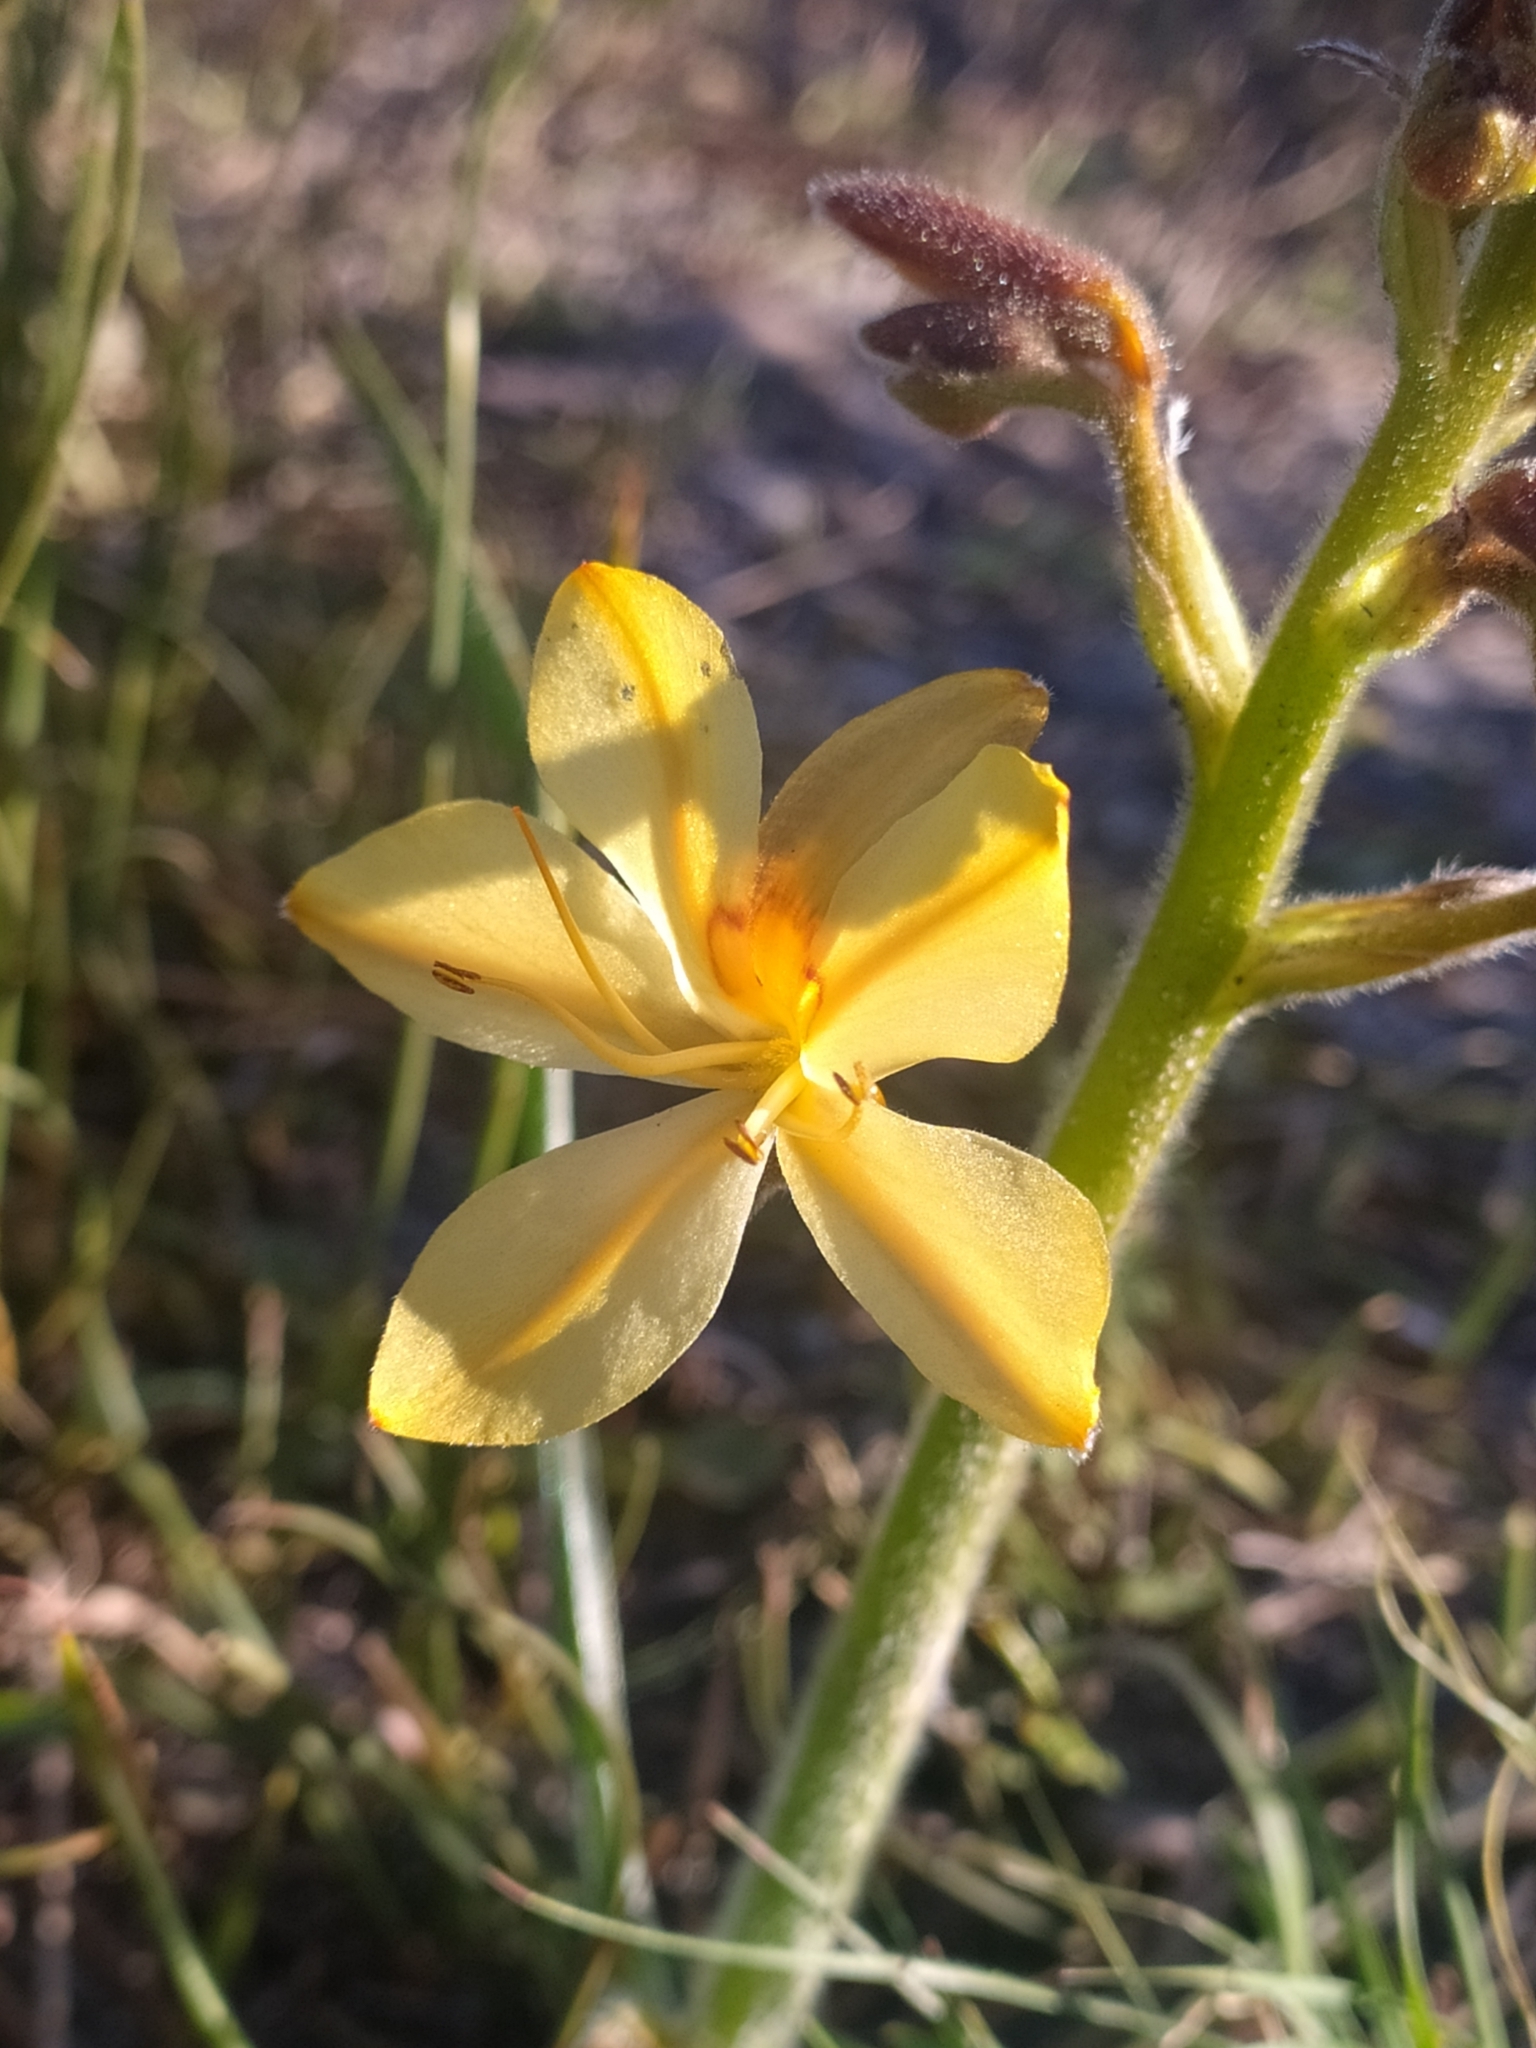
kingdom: Plantae
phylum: Tracheophyta
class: Liliopsida
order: Commelinales
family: Haemodoraceae
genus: Wachendorfia
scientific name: Wachendorfia paniculata
